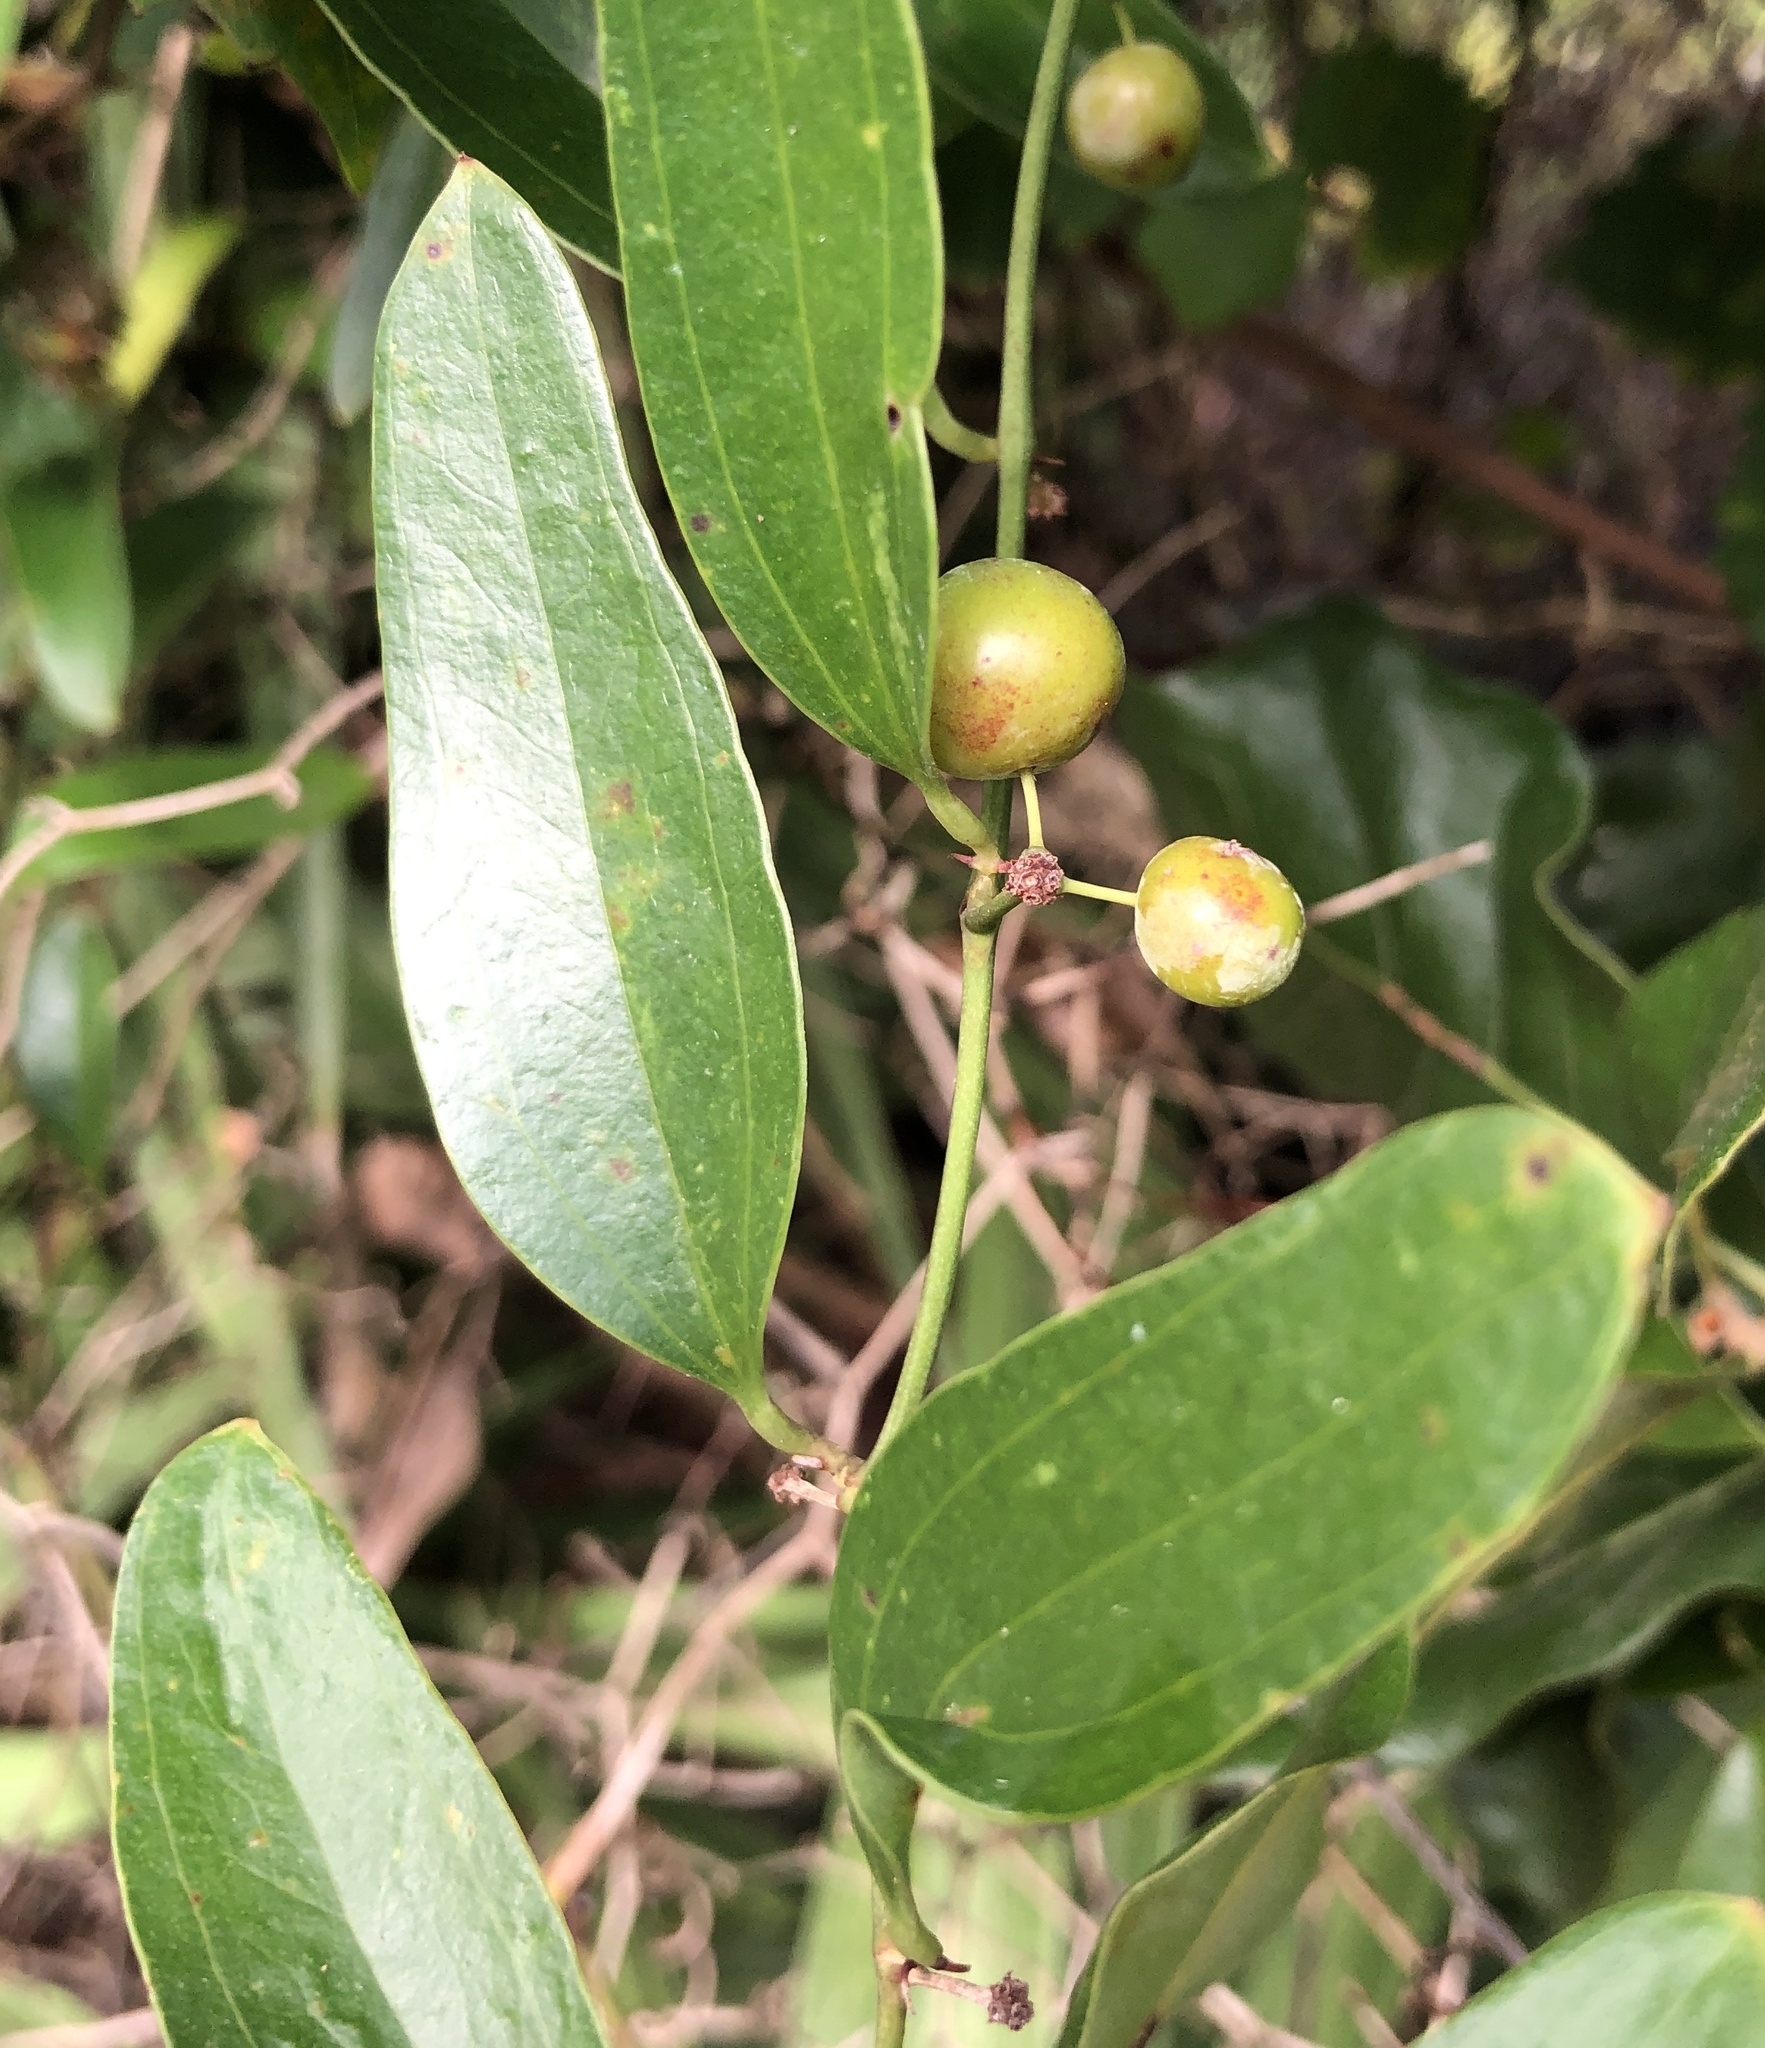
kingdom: Plantae
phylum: Tracheophyta
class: Liliopsida
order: Liliales
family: Smilacaceae
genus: Smilax
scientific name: Smilax auriculata
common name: Wild bamboo
